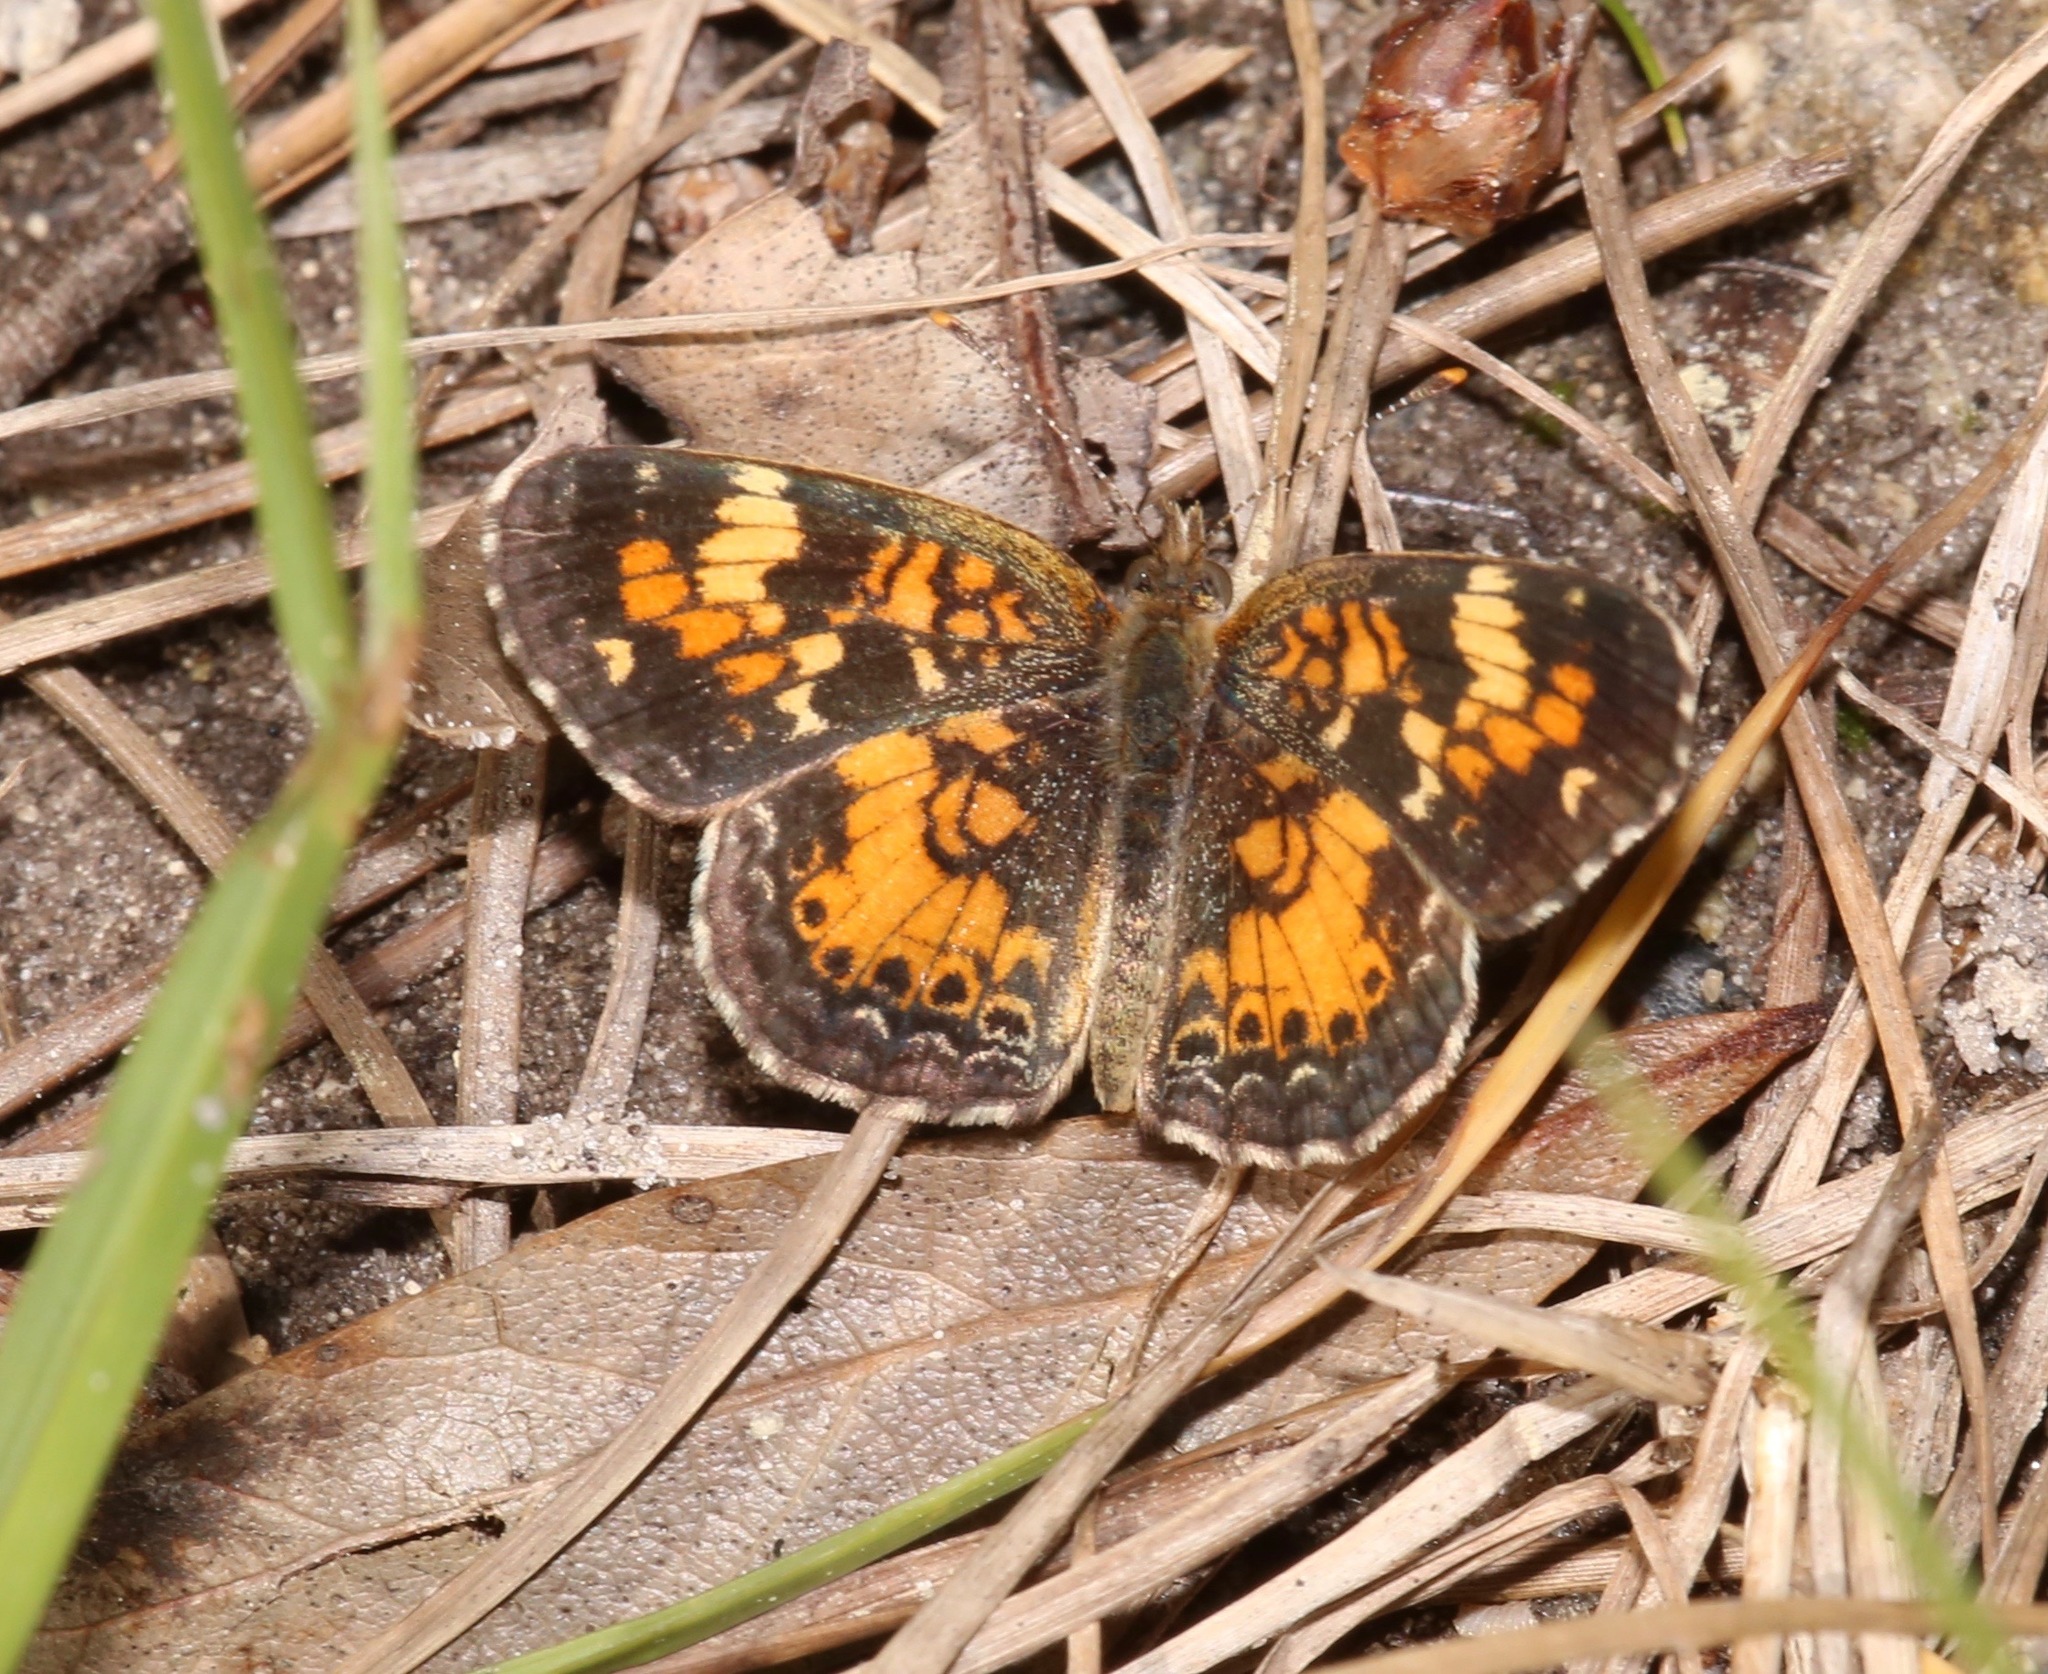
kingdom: Animalia
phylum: Arthropoda
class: Insecta
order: Lepidoptera
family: Nymphalidae
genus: Phyciodes
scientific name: Phyciodes phaon
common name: Phaon crescent
